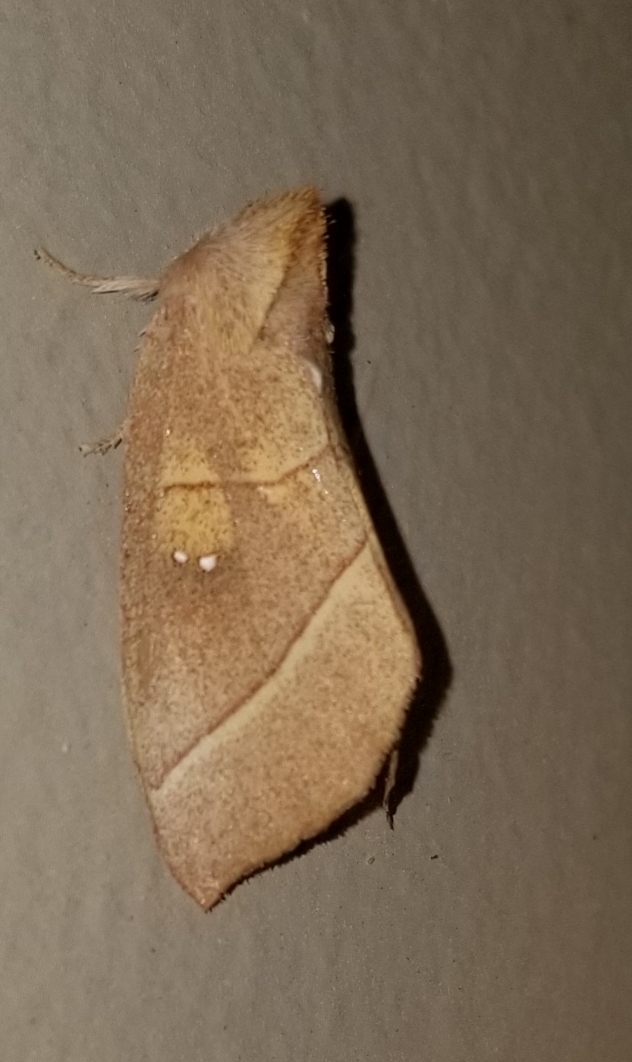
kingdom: Animalia
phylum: Arthropoda
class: Insecta
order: Lepidoptera
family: Notodontidae
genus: Nadata
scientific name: Nadata gibbosa
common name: White-dotted prominent
